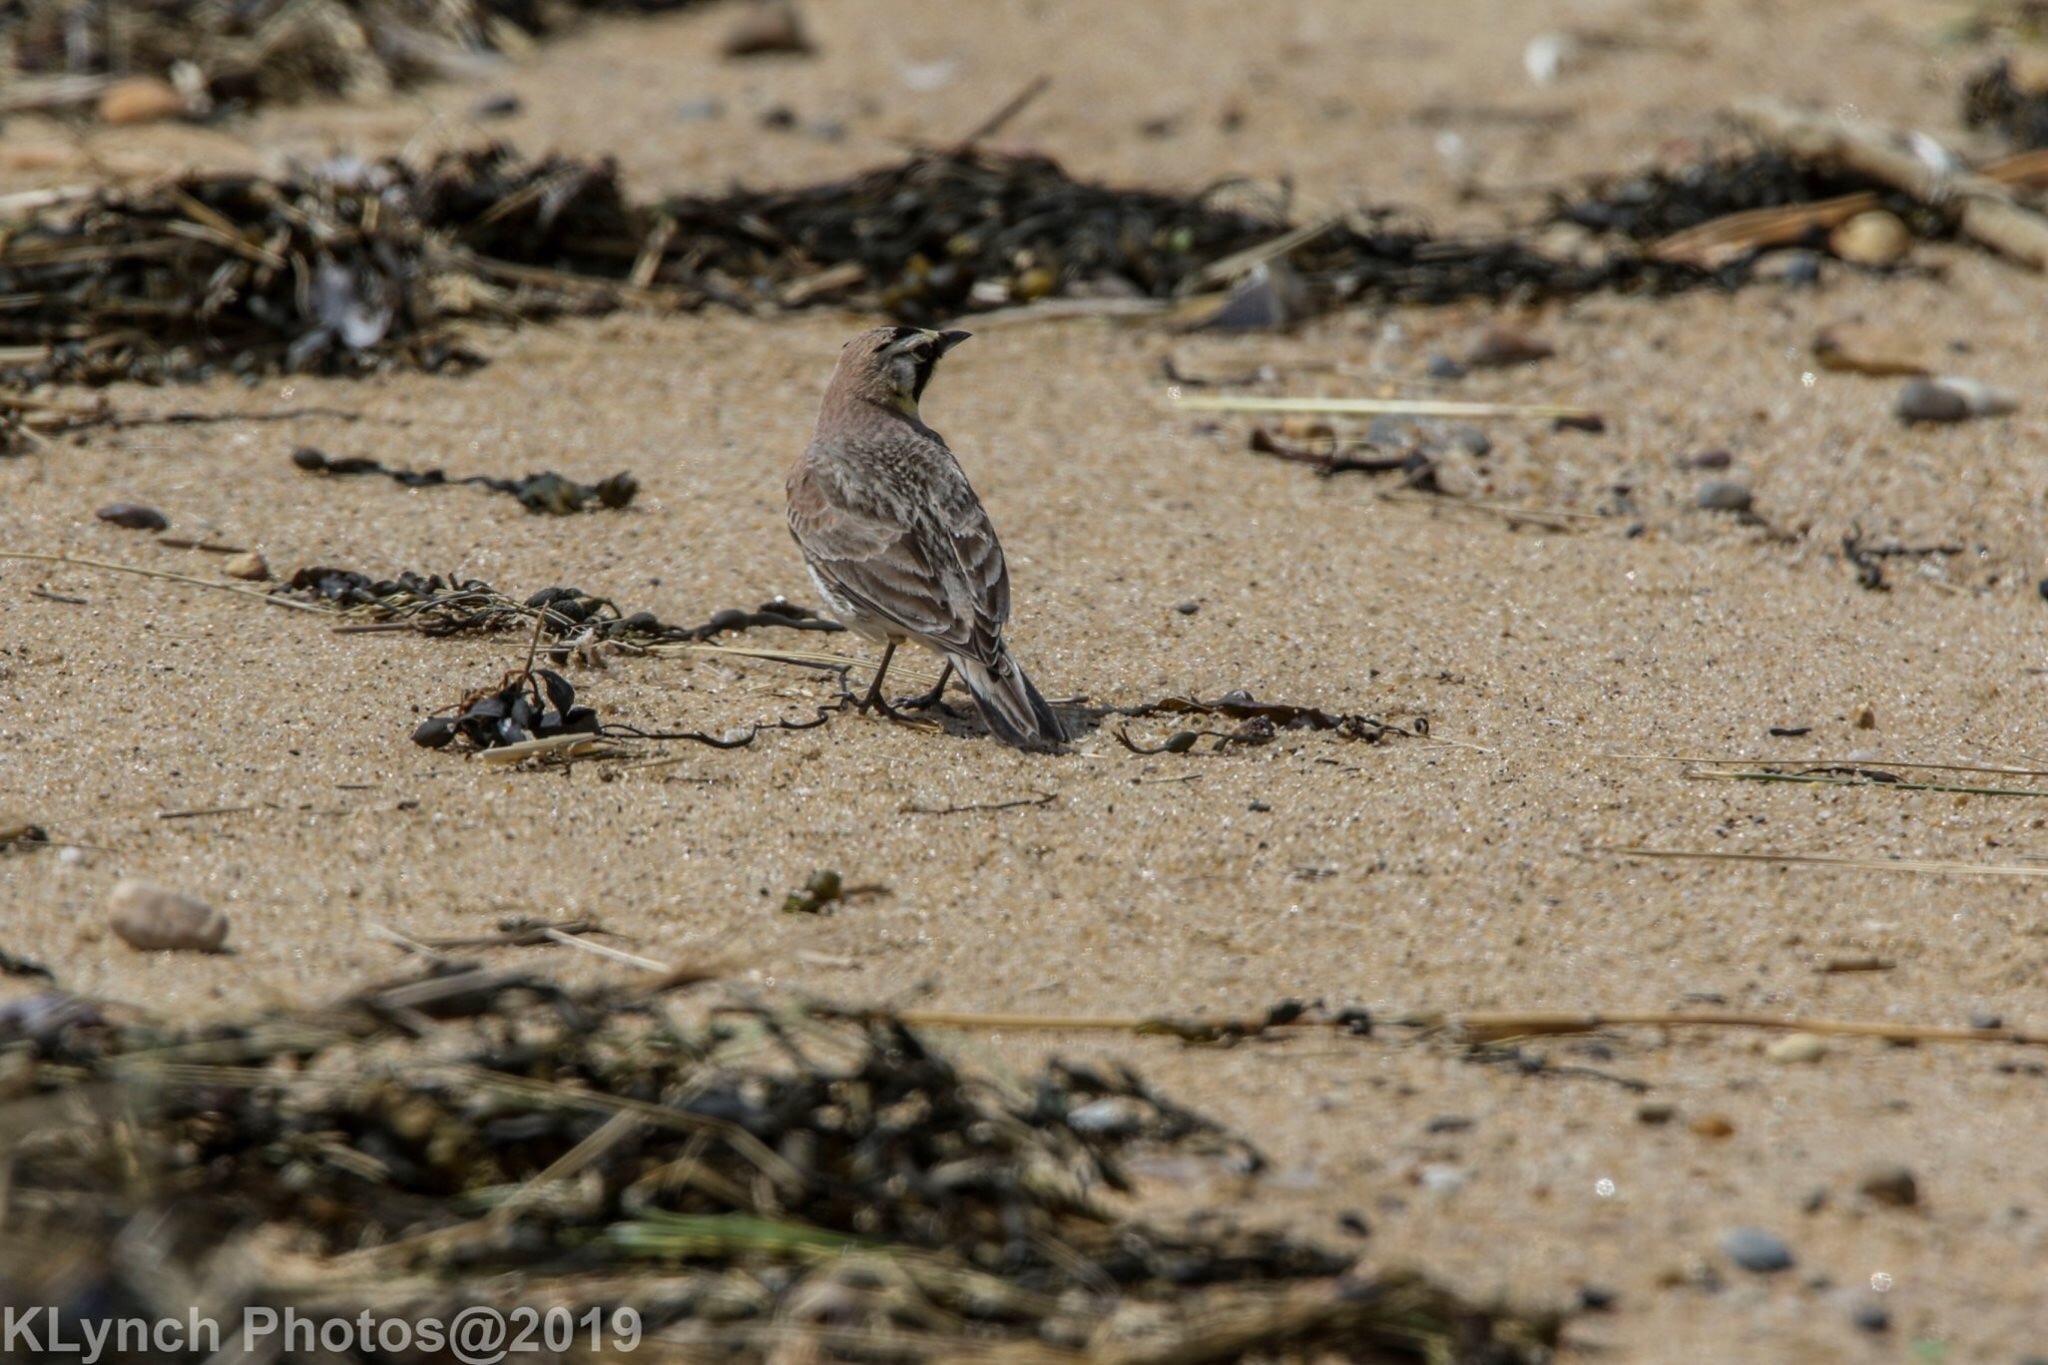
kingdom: Animalia
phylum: Chordata
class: Aves
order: Passeriformes
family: Alaudidae
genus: Eremophila
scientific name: Eremophila alpestris
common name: Horned lark
